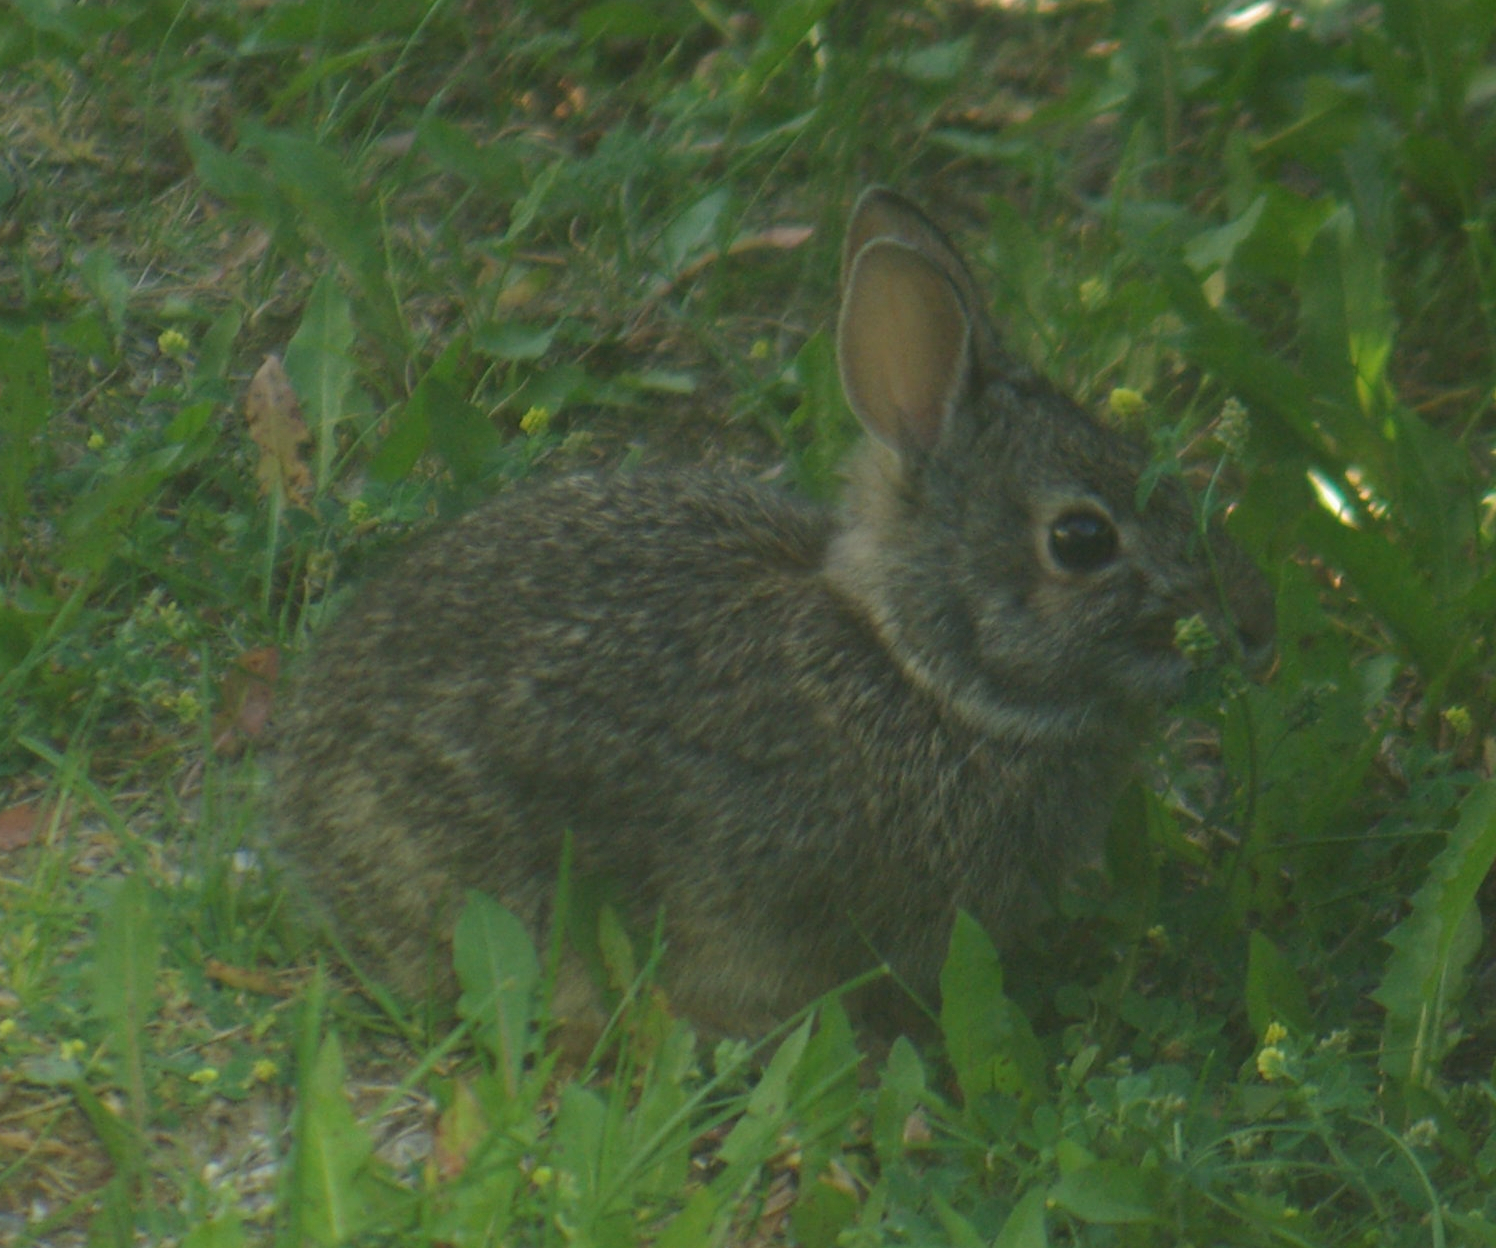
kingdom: Animalia
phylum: Chordata
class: Mammalia
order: Lagomorpha
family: Leporidae
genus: Sylvilagus
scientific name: Sylvilagus floridanus
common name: Eastern cottontail
